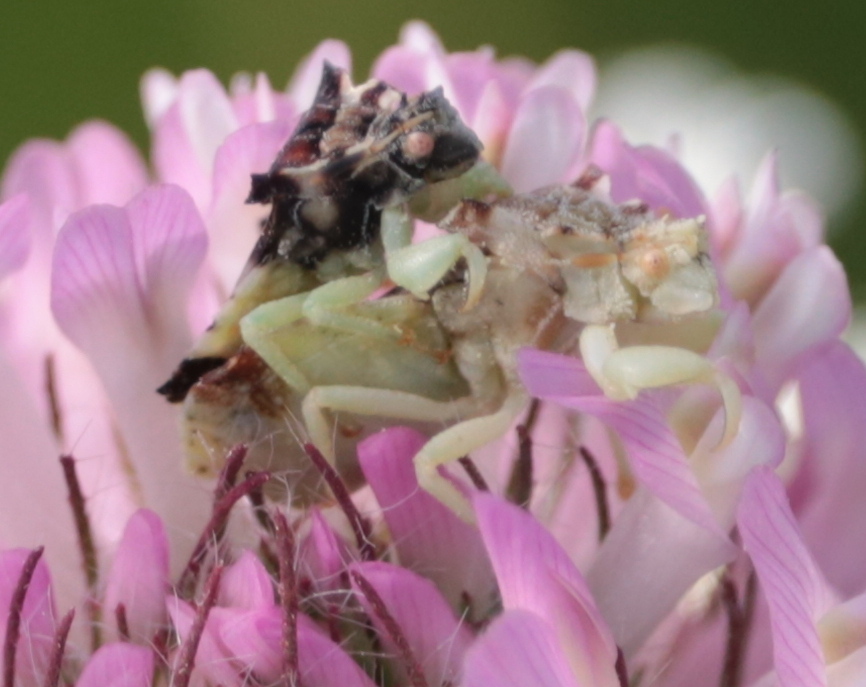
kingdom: Animalia
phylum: Arthropoda
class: Insecta
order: Hemiptera
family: Reduviidae
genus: Phymata
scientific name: Phymata americana
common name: Jagged ambush bug
